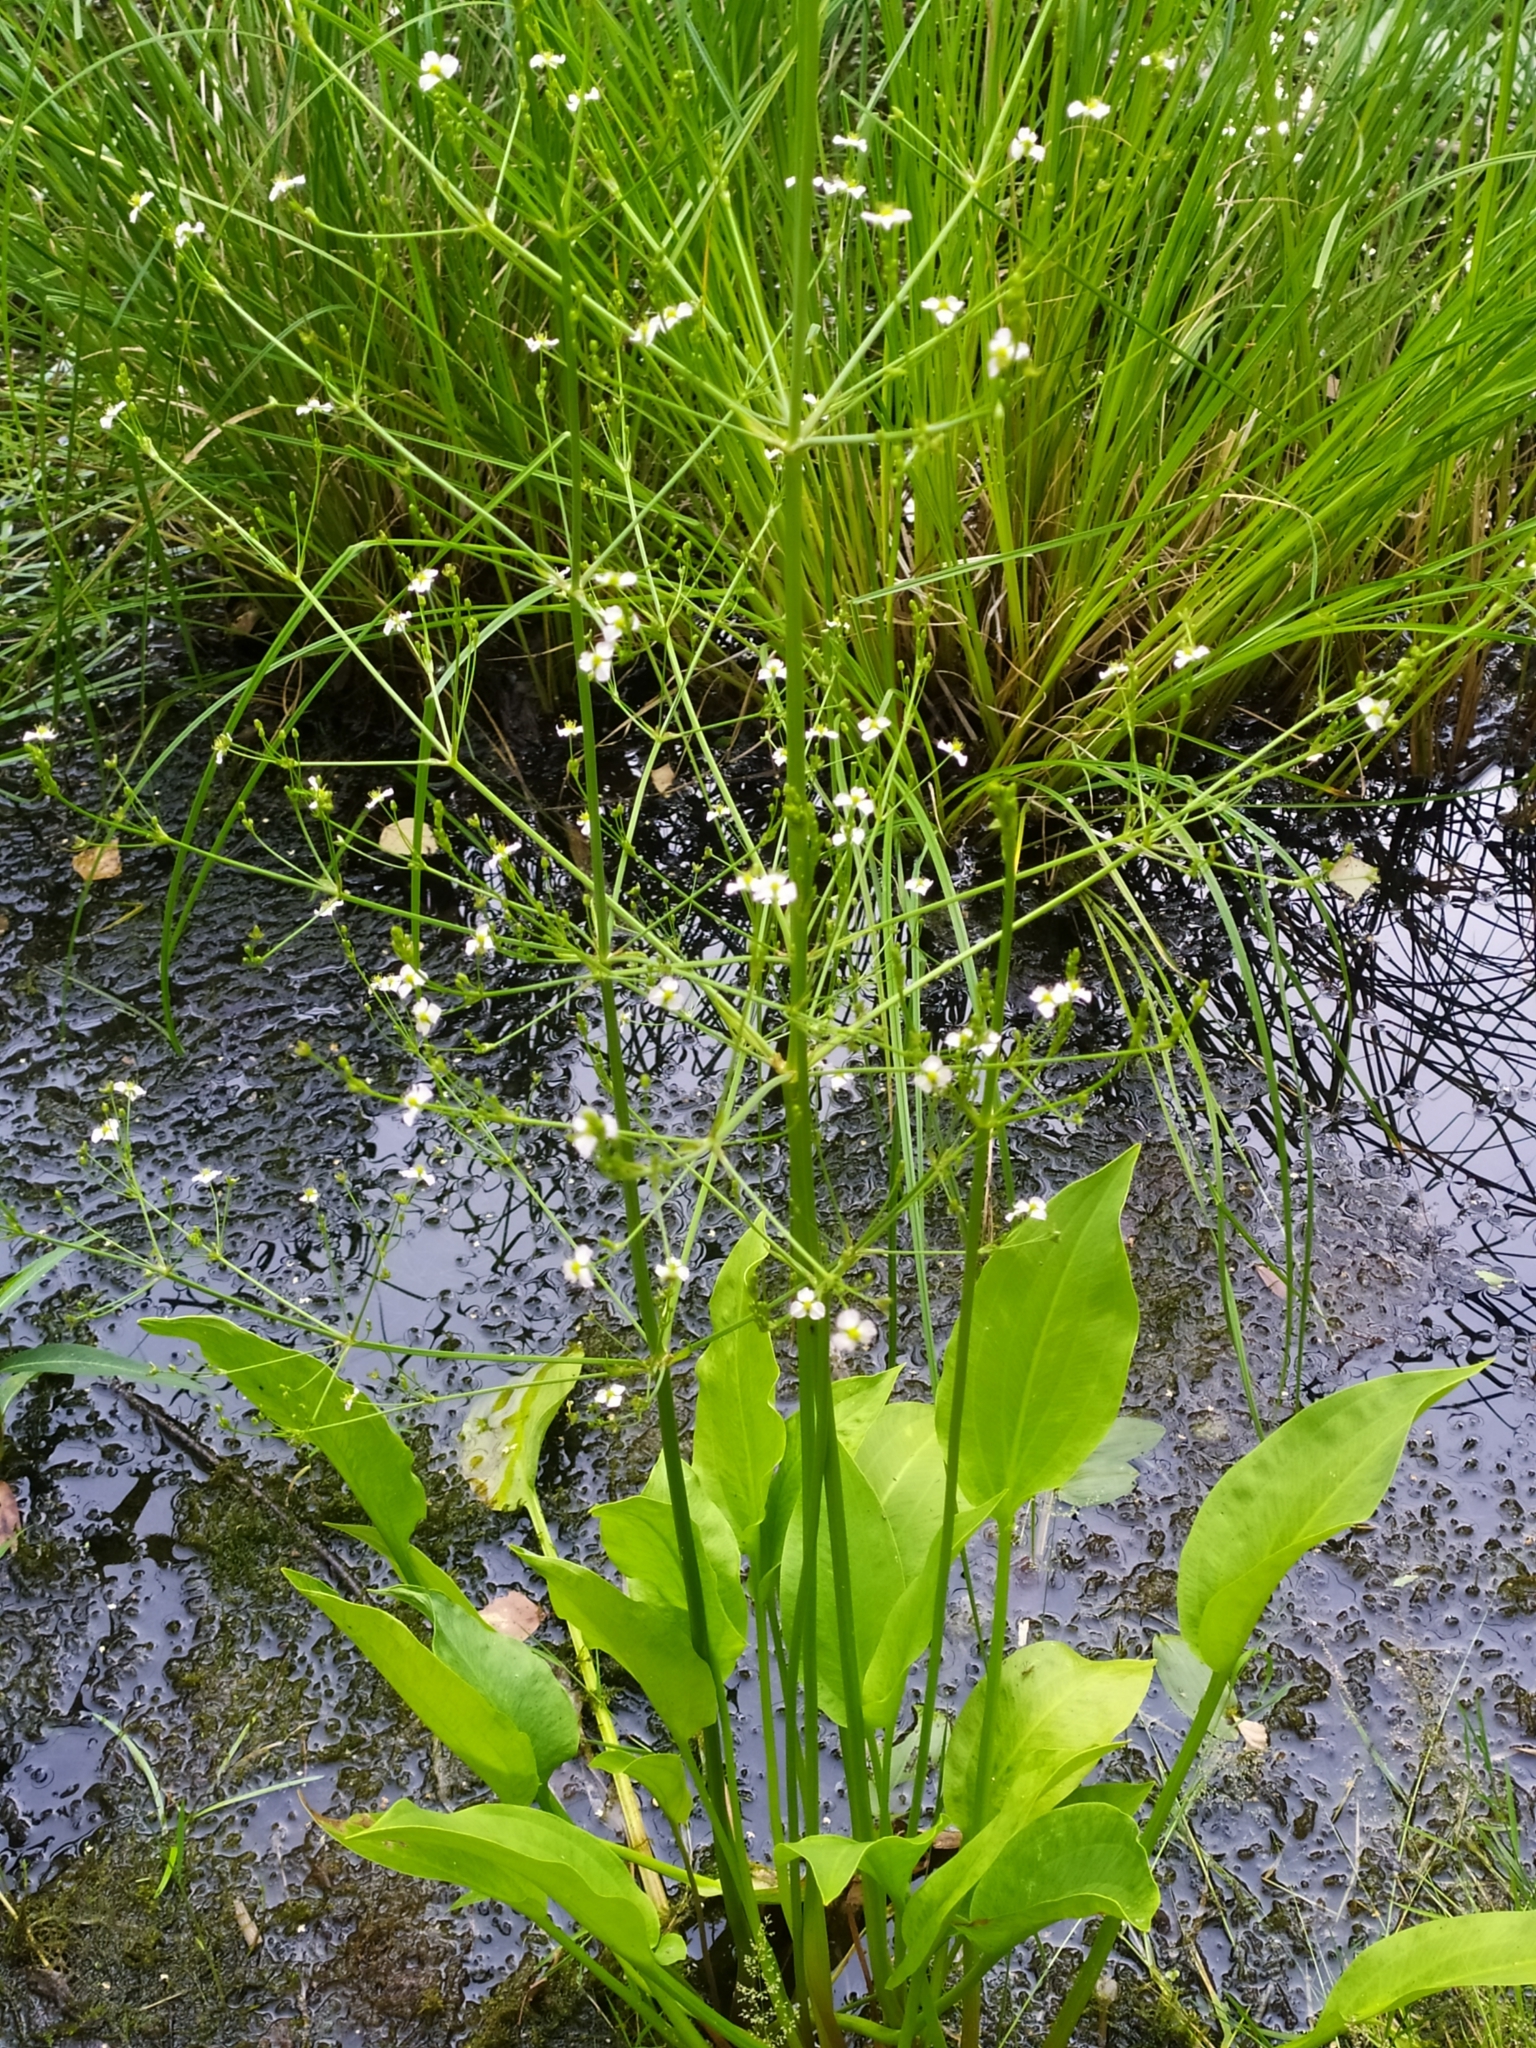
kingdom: Plantae
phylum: Tracheophyta
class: Liliopsida
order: Alismatales
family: Alismataceae
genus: Alisma
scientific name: Alisma plantago-aquatica
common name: Water-plantain
